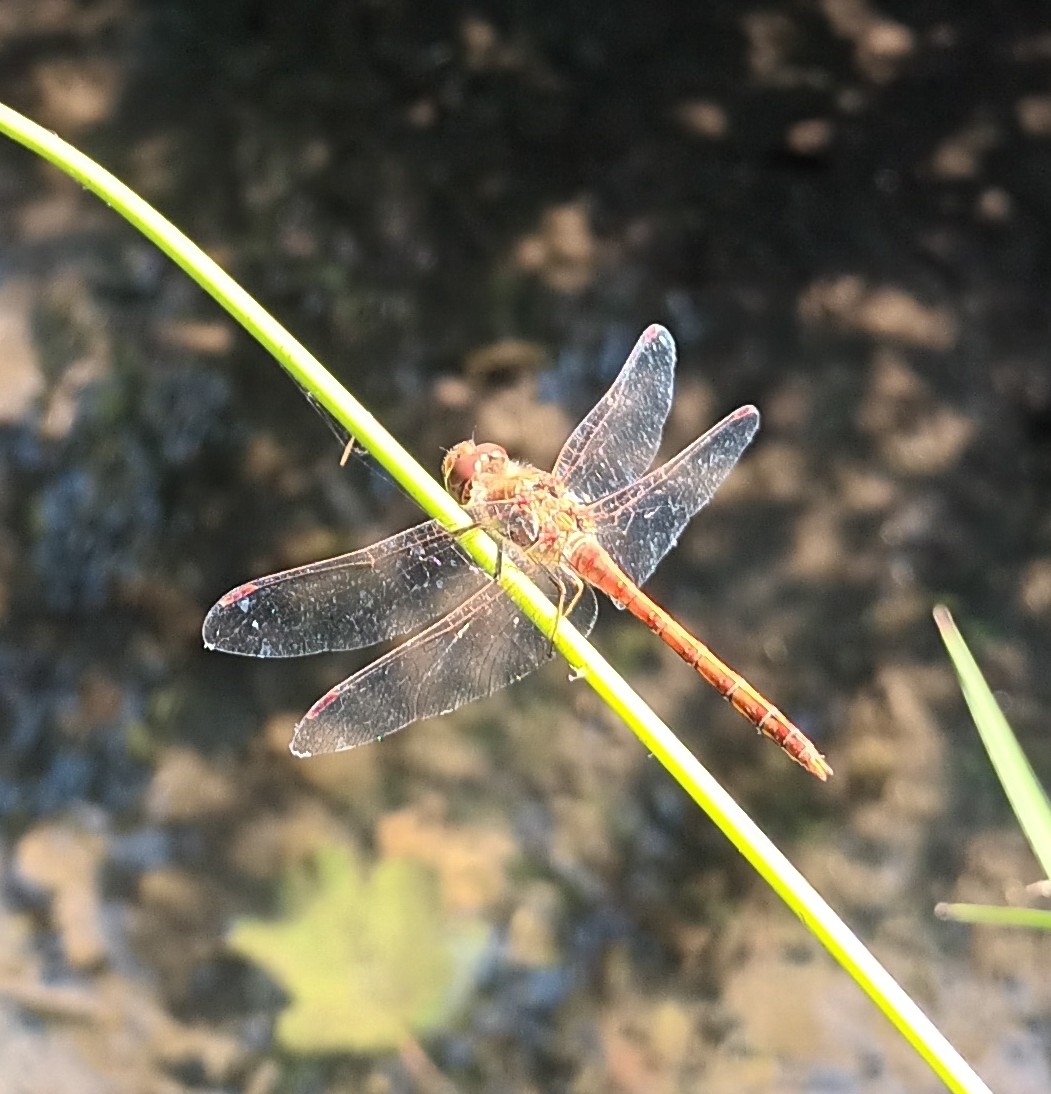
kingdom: Animalia
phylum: Arthropoda
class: Insecta
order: Odonata
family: Libellulidae
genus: Sympetrum
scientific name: Sympetrum striolatum
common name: Common darter
